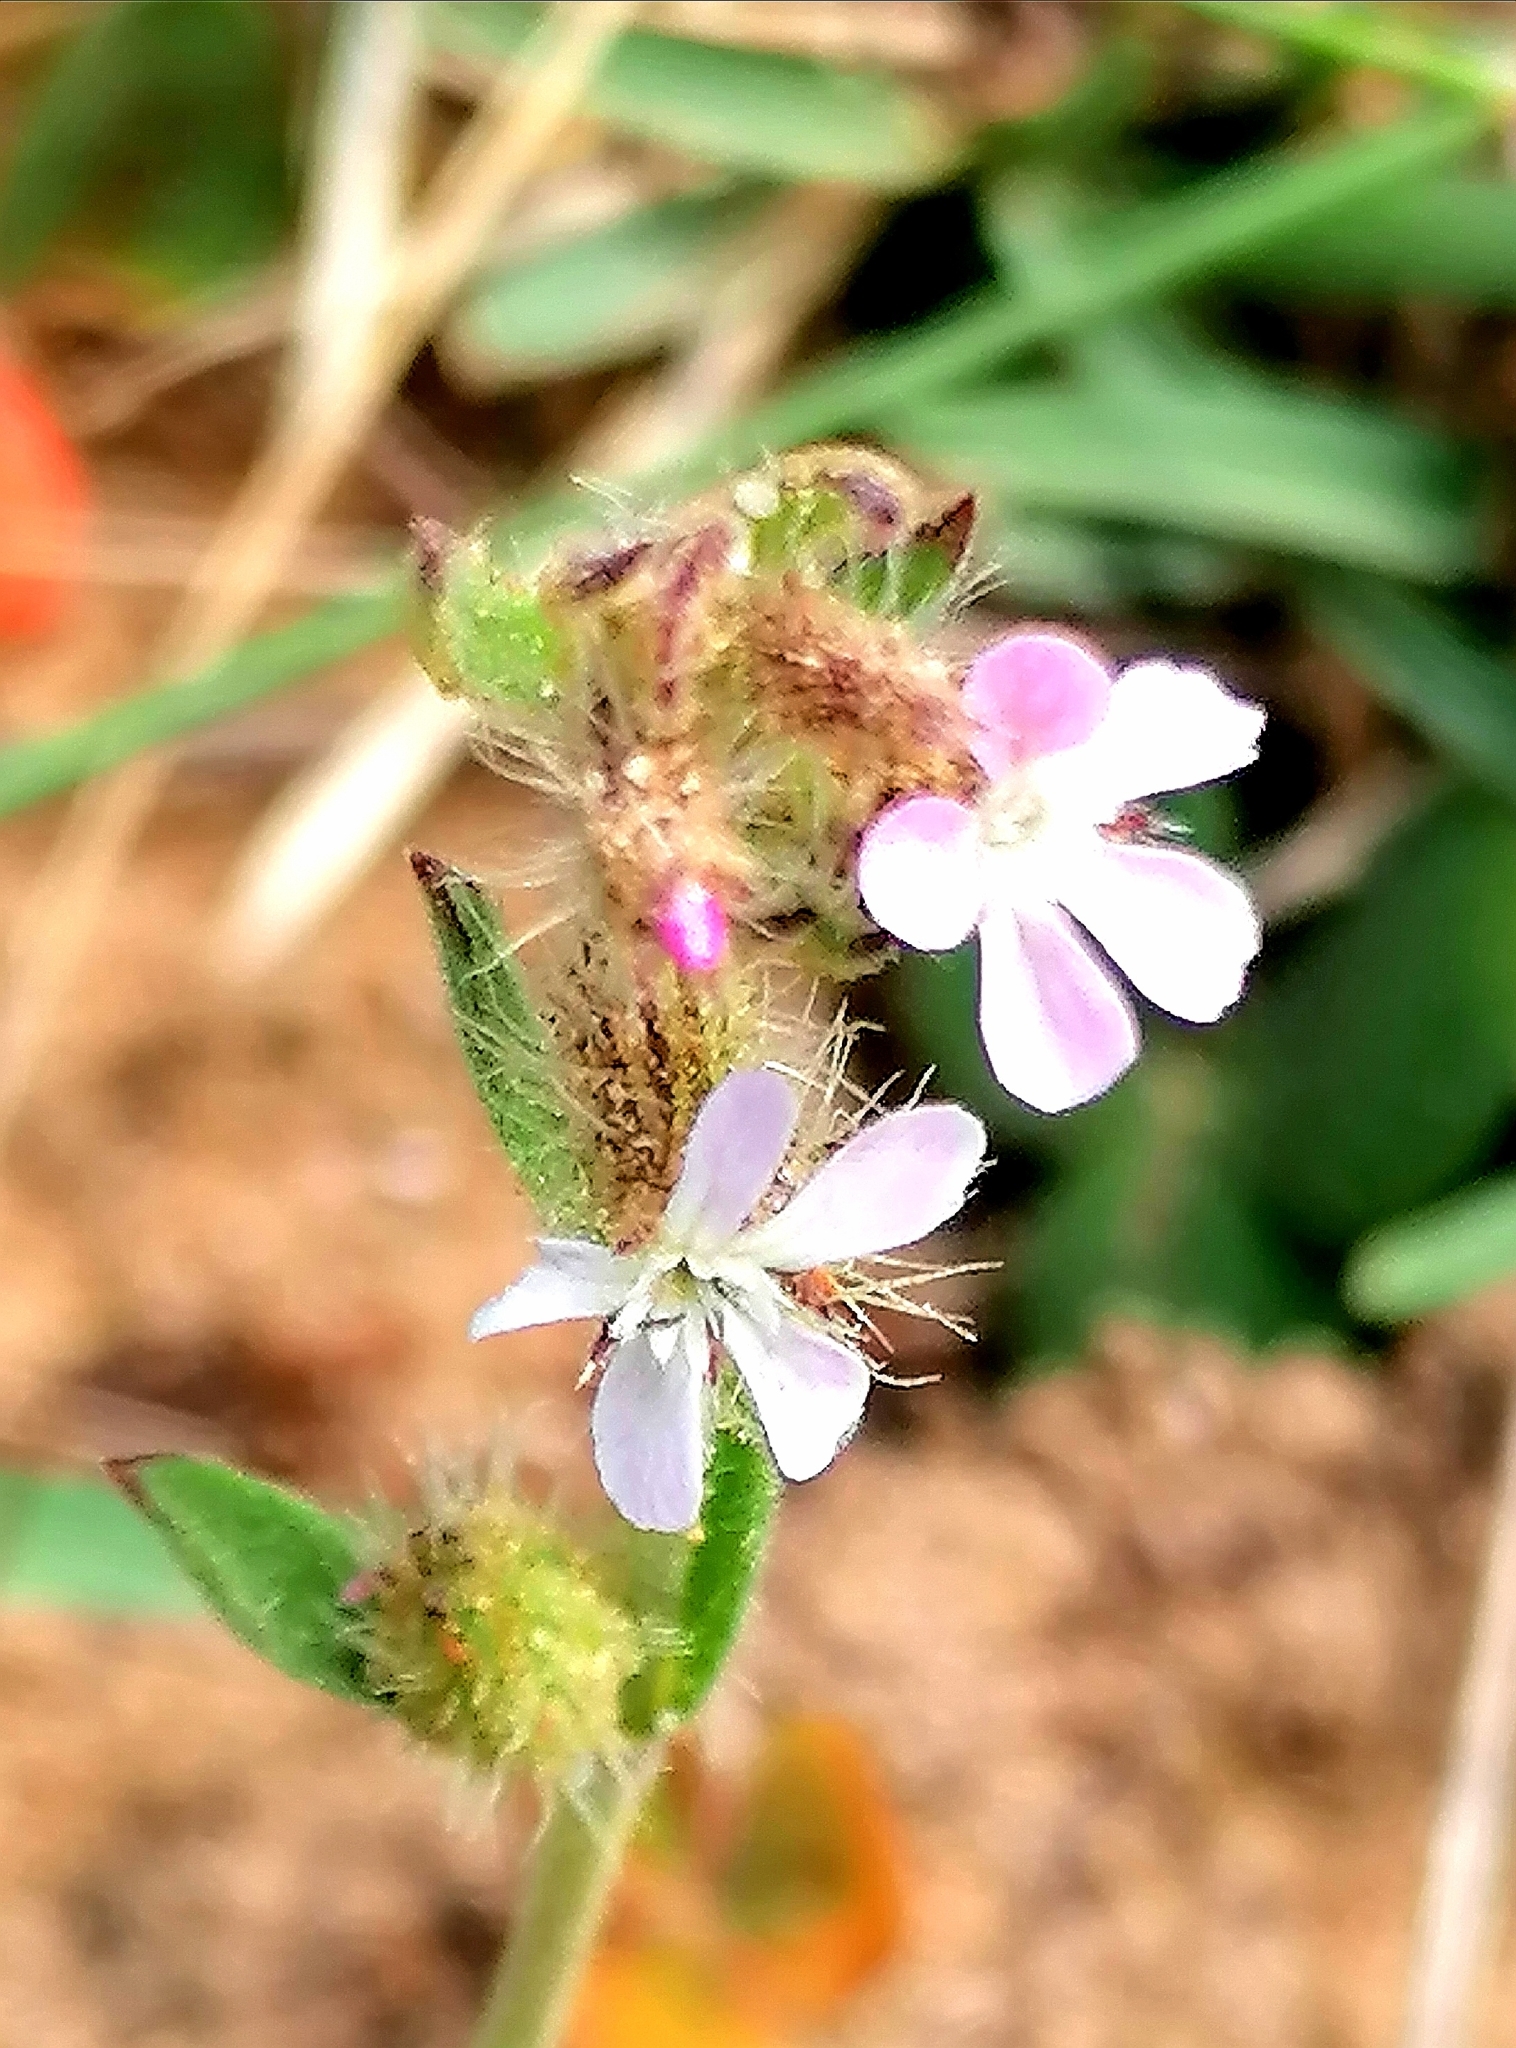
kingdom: Plantae
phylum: Tracheophyta
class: Magnoliopsida
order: Caryophyllales
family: Caryophyllaceae
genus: Silene
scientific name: Silene gallica
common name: Small-flowered catchfly
